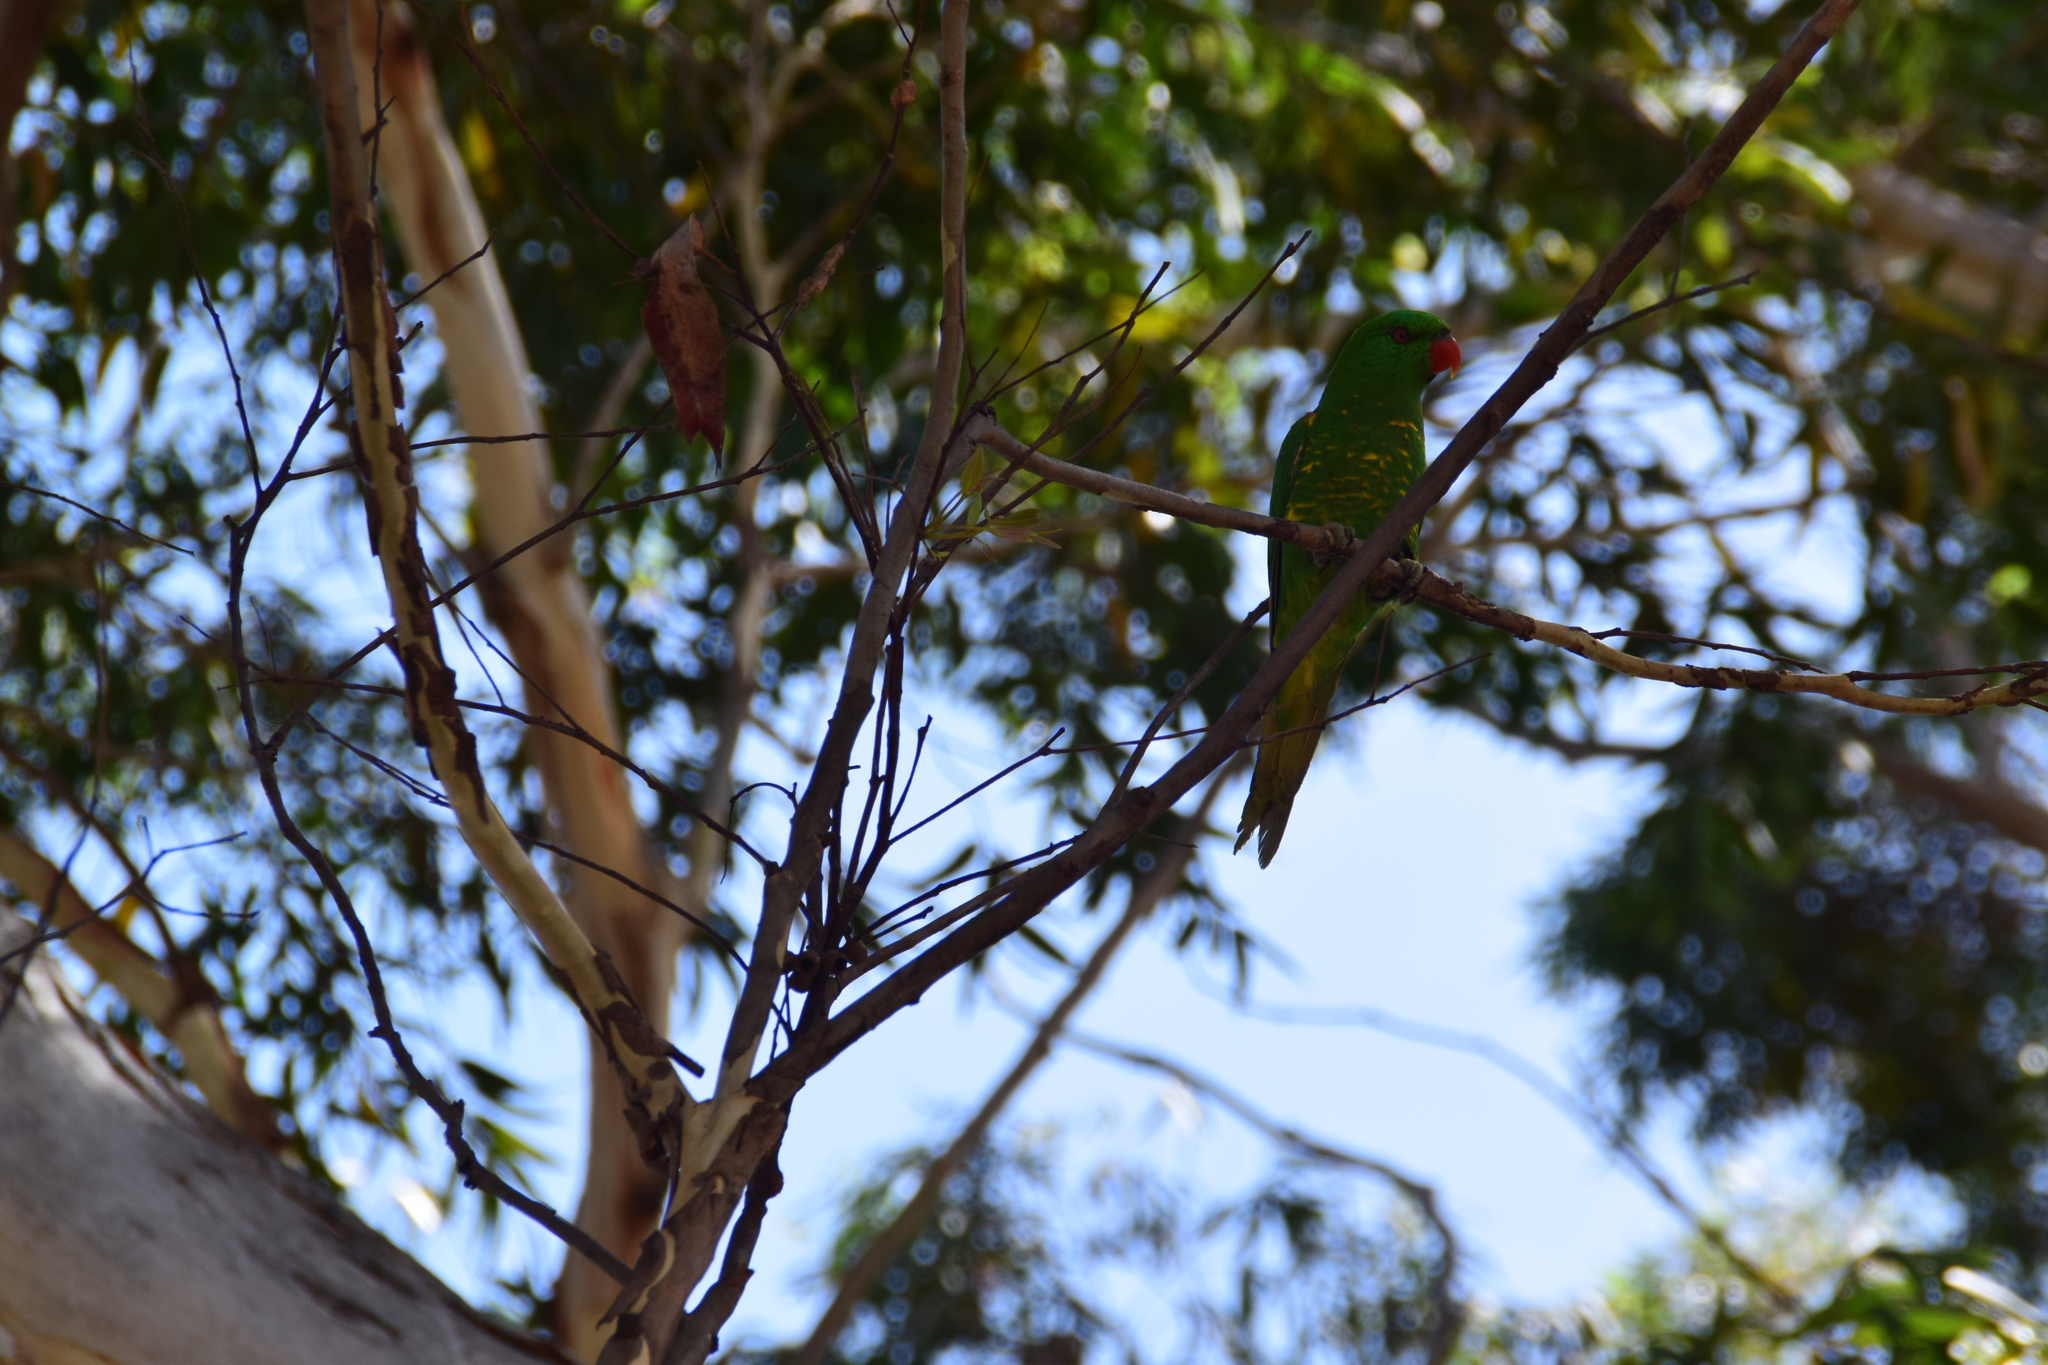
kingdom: Animalia
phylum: Chordata
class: Aves
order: Psittaciformes
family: Psittacidae
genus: Trichoglossus
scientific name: Trichoglossus chlorolepidotus
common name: Scaly-breasted lorikeet
